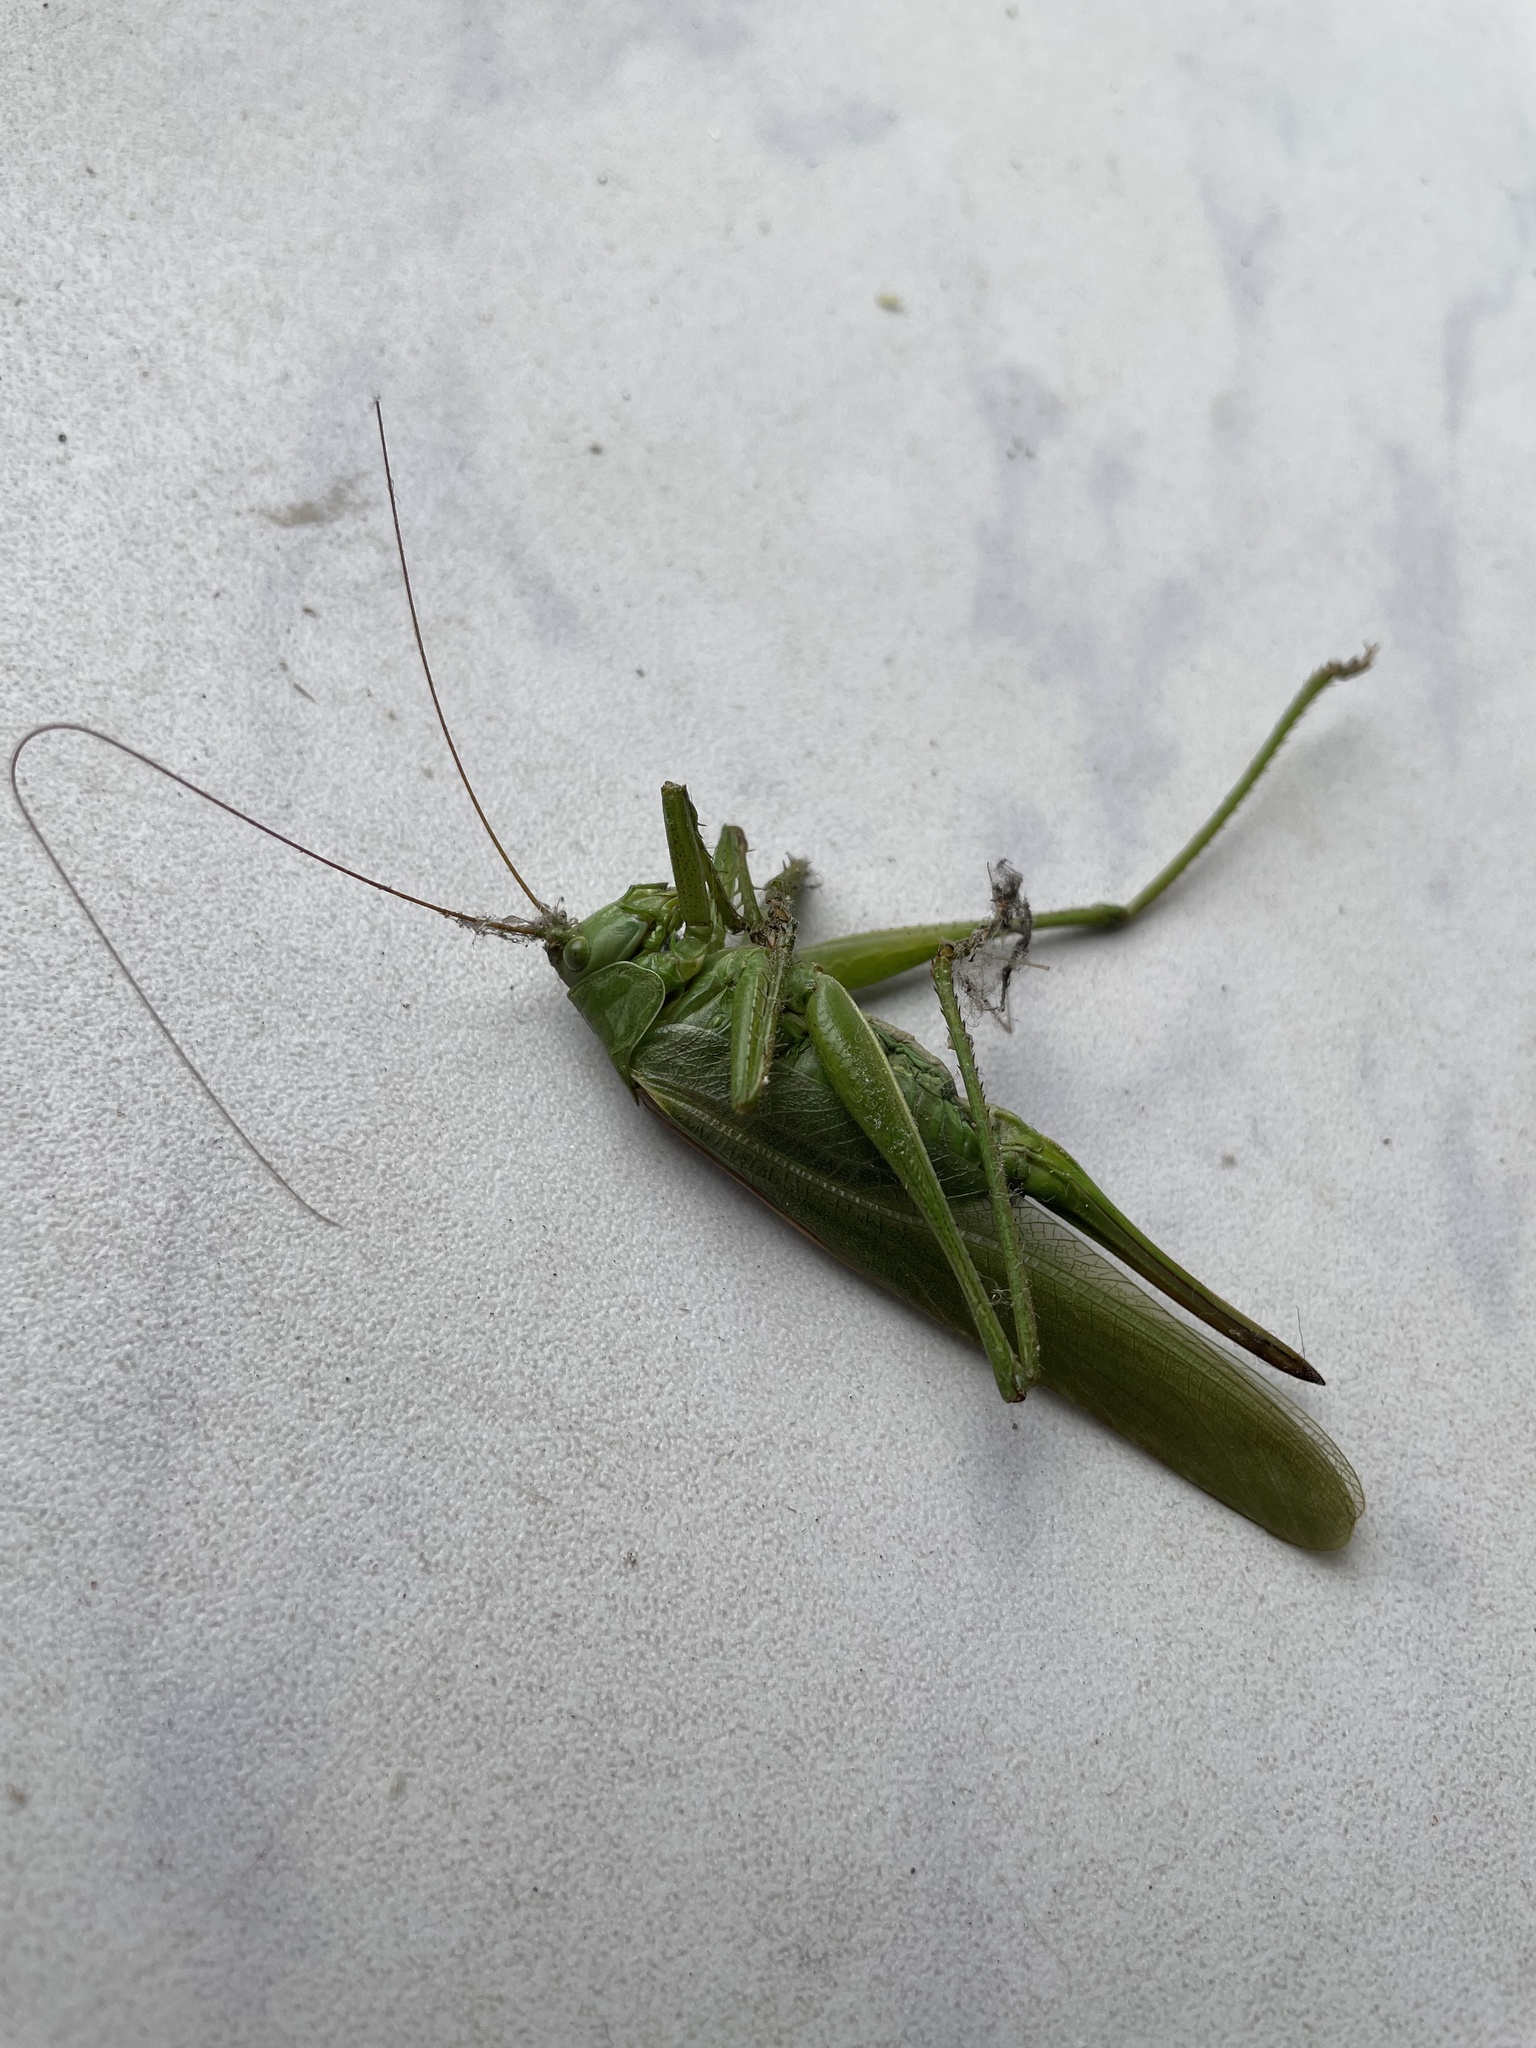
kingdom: Animalia
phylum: Arthropoda
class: Insecta
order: Orthoptera
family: Tettigoniidae
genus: Tettigonia
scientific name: Tettigonia viridissima
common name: Great green bush-cricket
